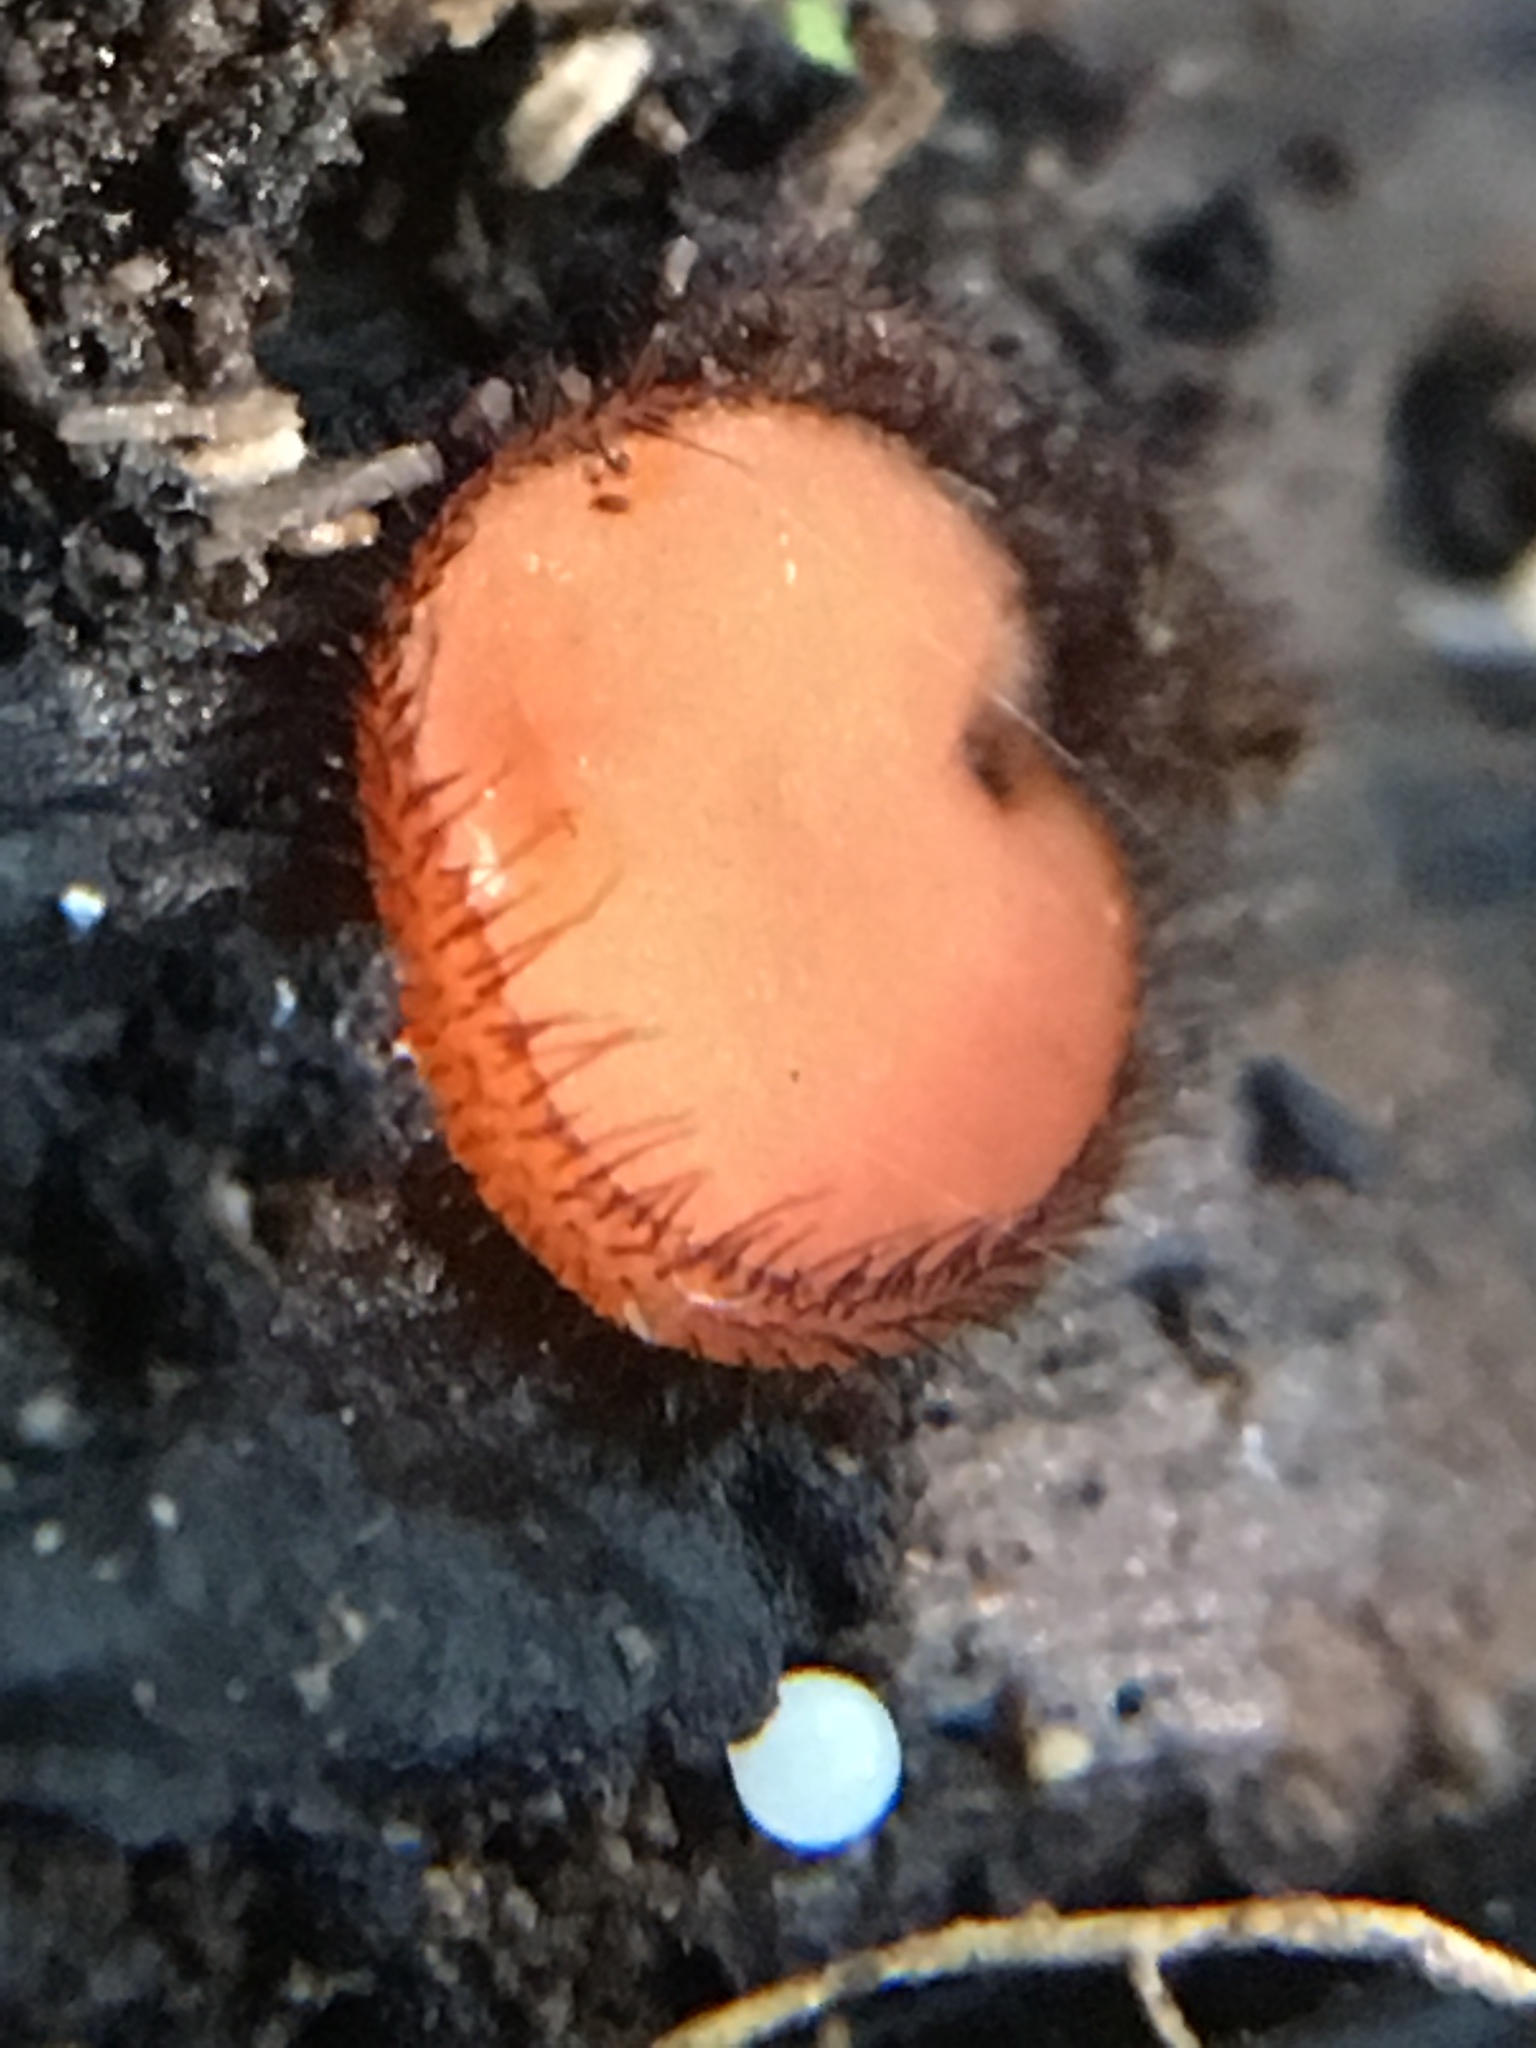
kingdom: Fungi
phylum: Ascomycota
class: Pezizomycetes
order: Pezizales
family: Pyronemataceae
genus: Scutellinia
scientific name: Scutellinia
